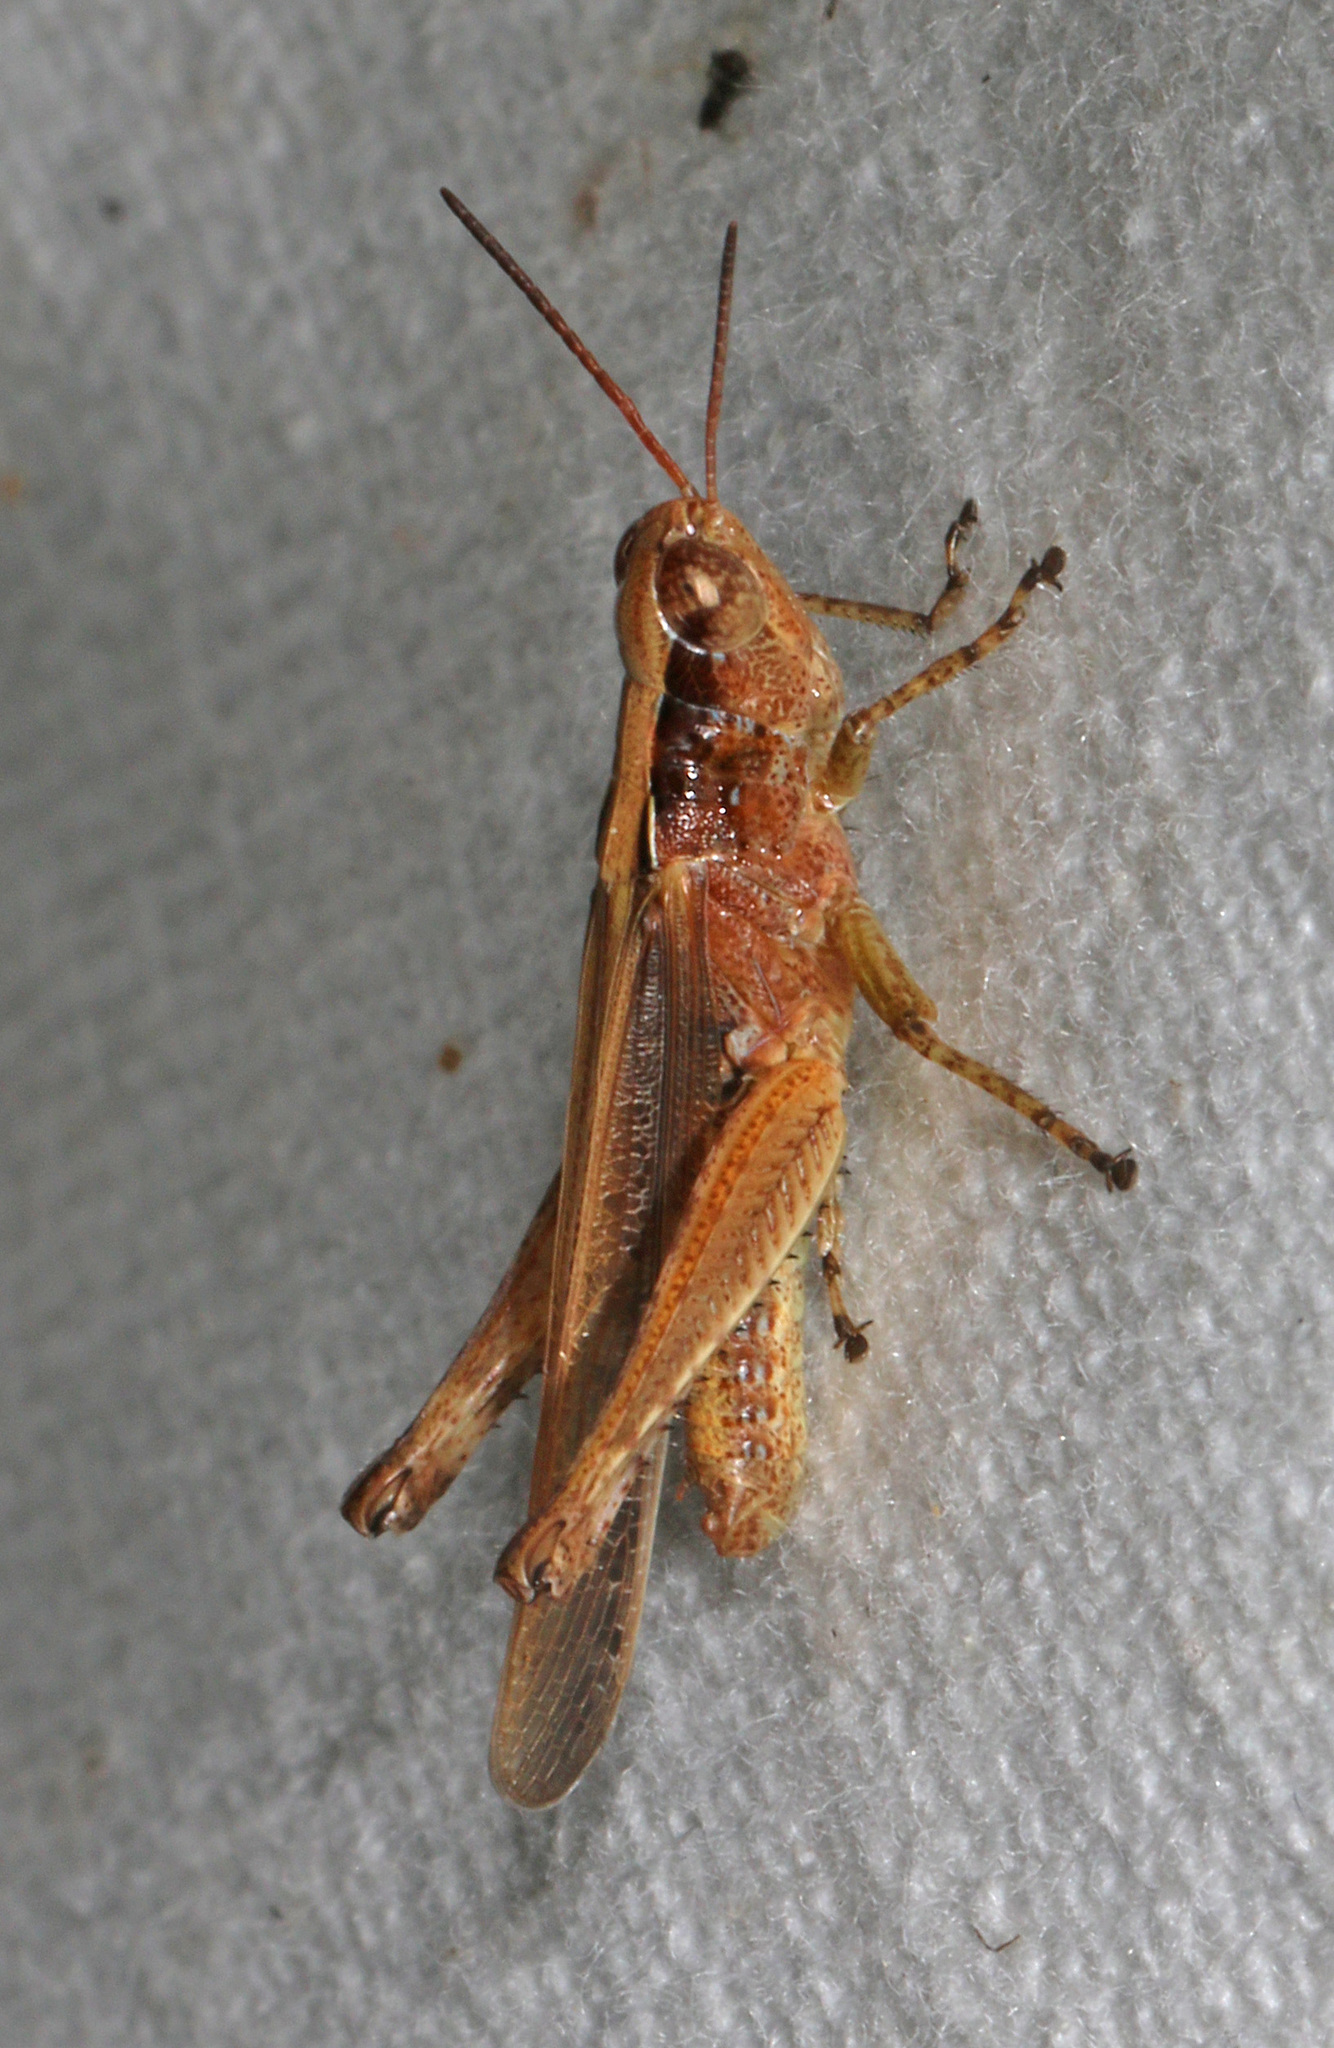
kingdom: Animalia
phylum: Arthropoda
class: Insecta
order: Orthoptera
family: Acrididae
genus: Orphulella
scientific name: Orphulella pelidna
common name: Spotted-wing grasshopper
